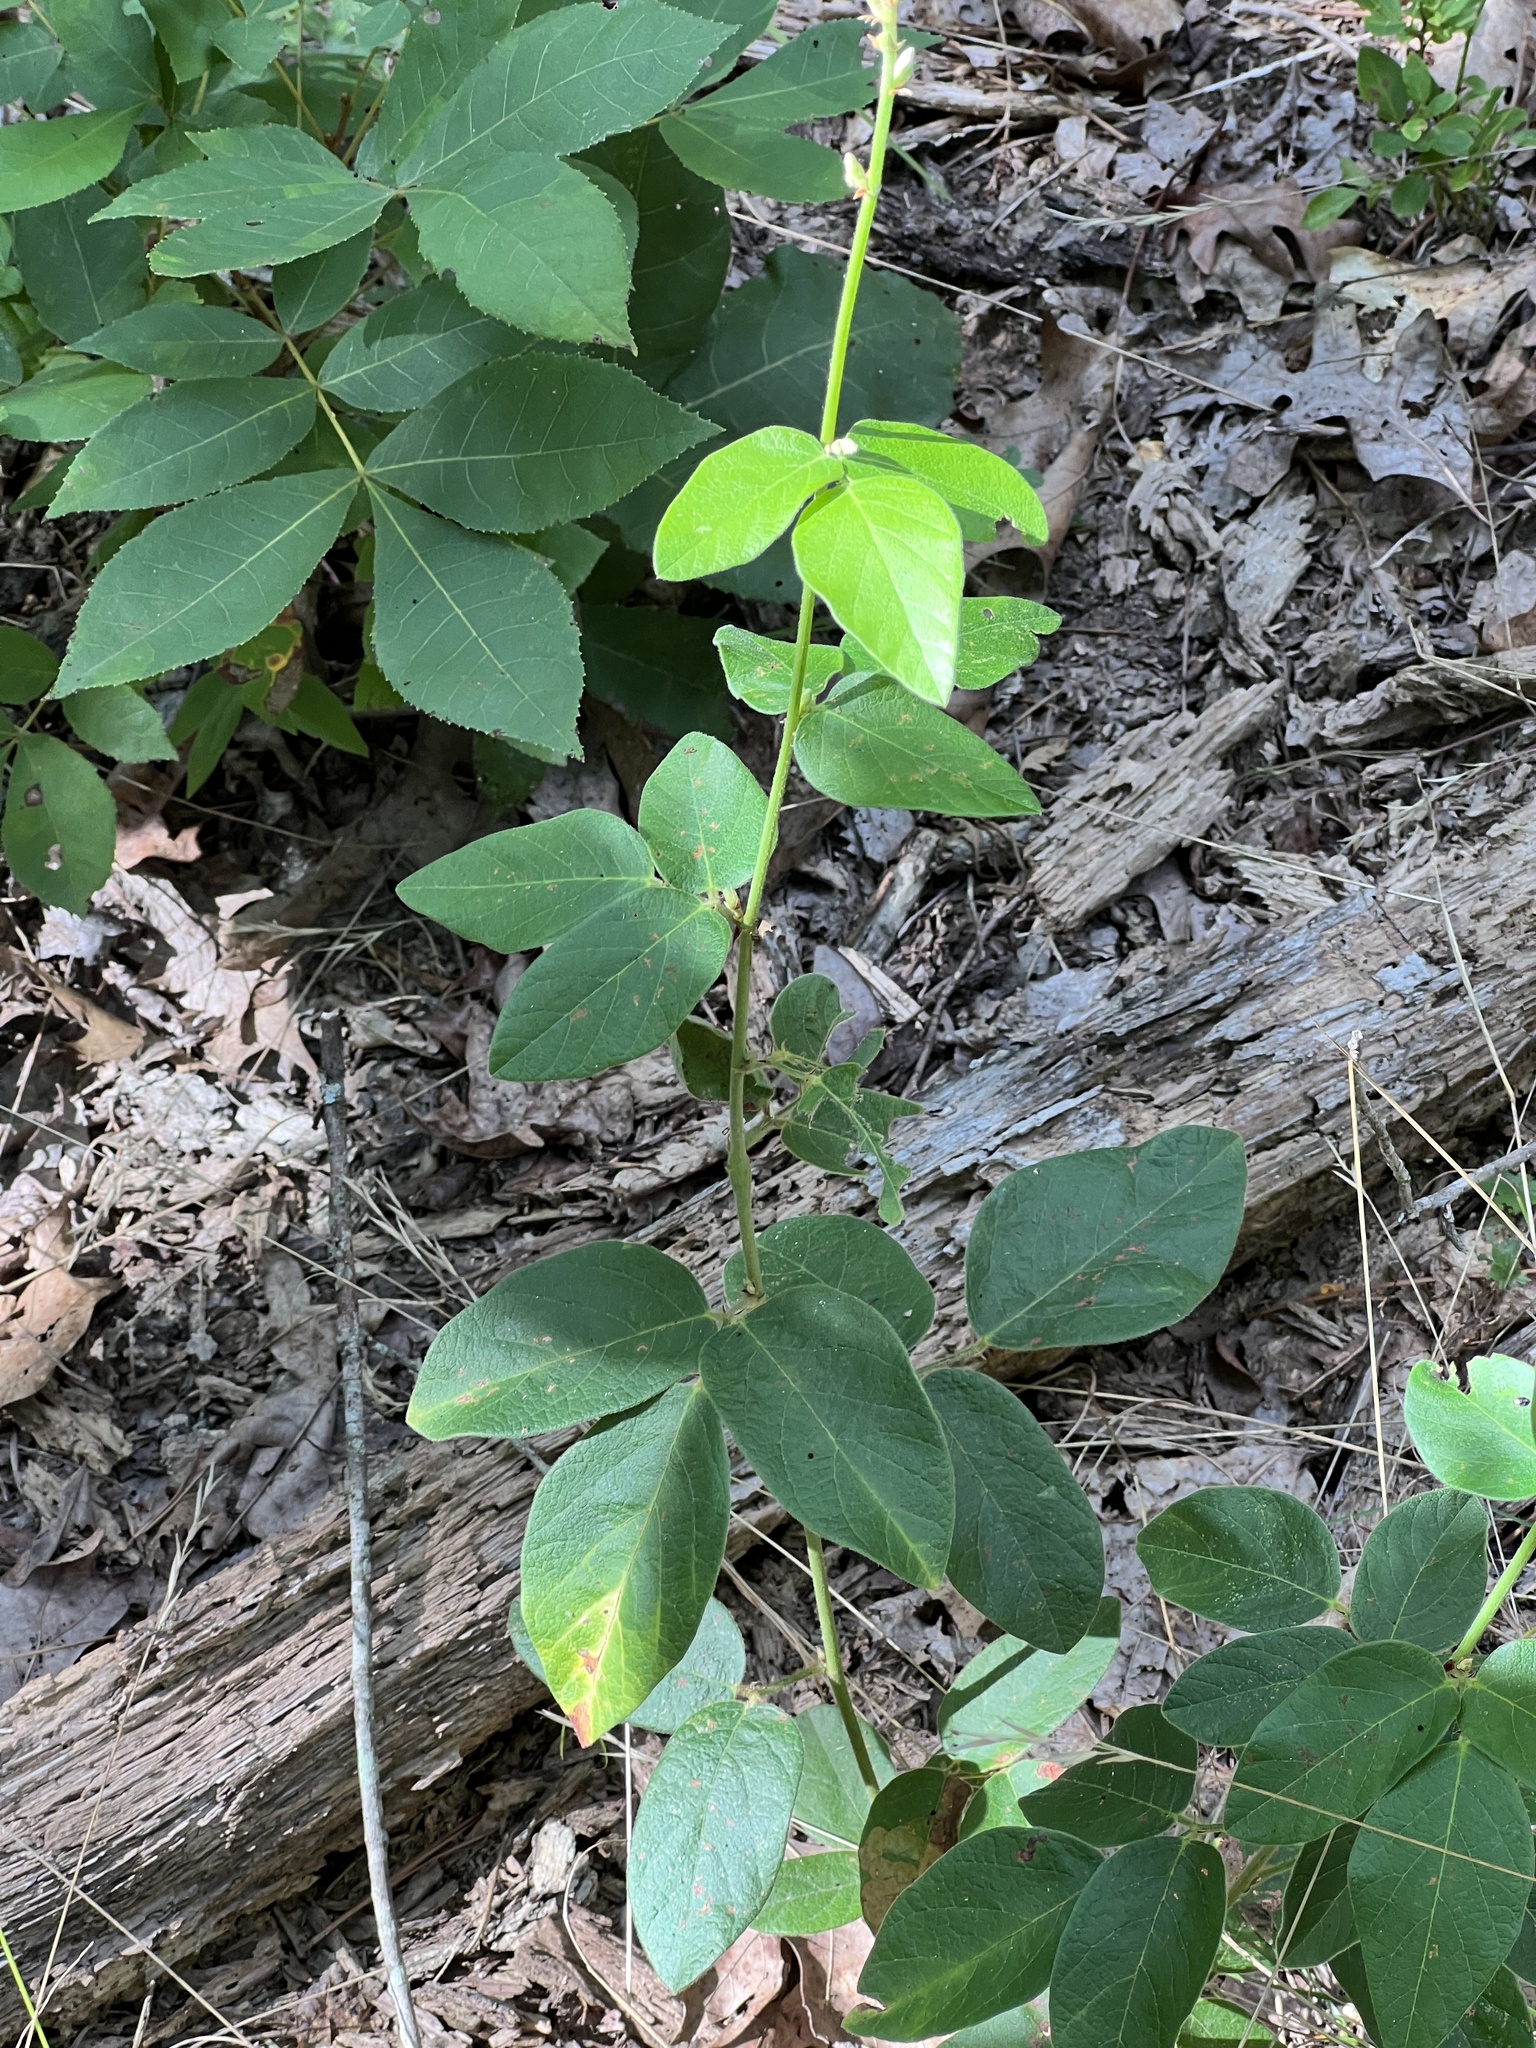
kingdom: Plantae
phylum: Tracheophyta
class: Magnoliopsida
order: Fabales
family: Fabaceae
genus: Desmodium
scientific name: Desmodium nuttallii
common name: Nuttall's tick trefoil
